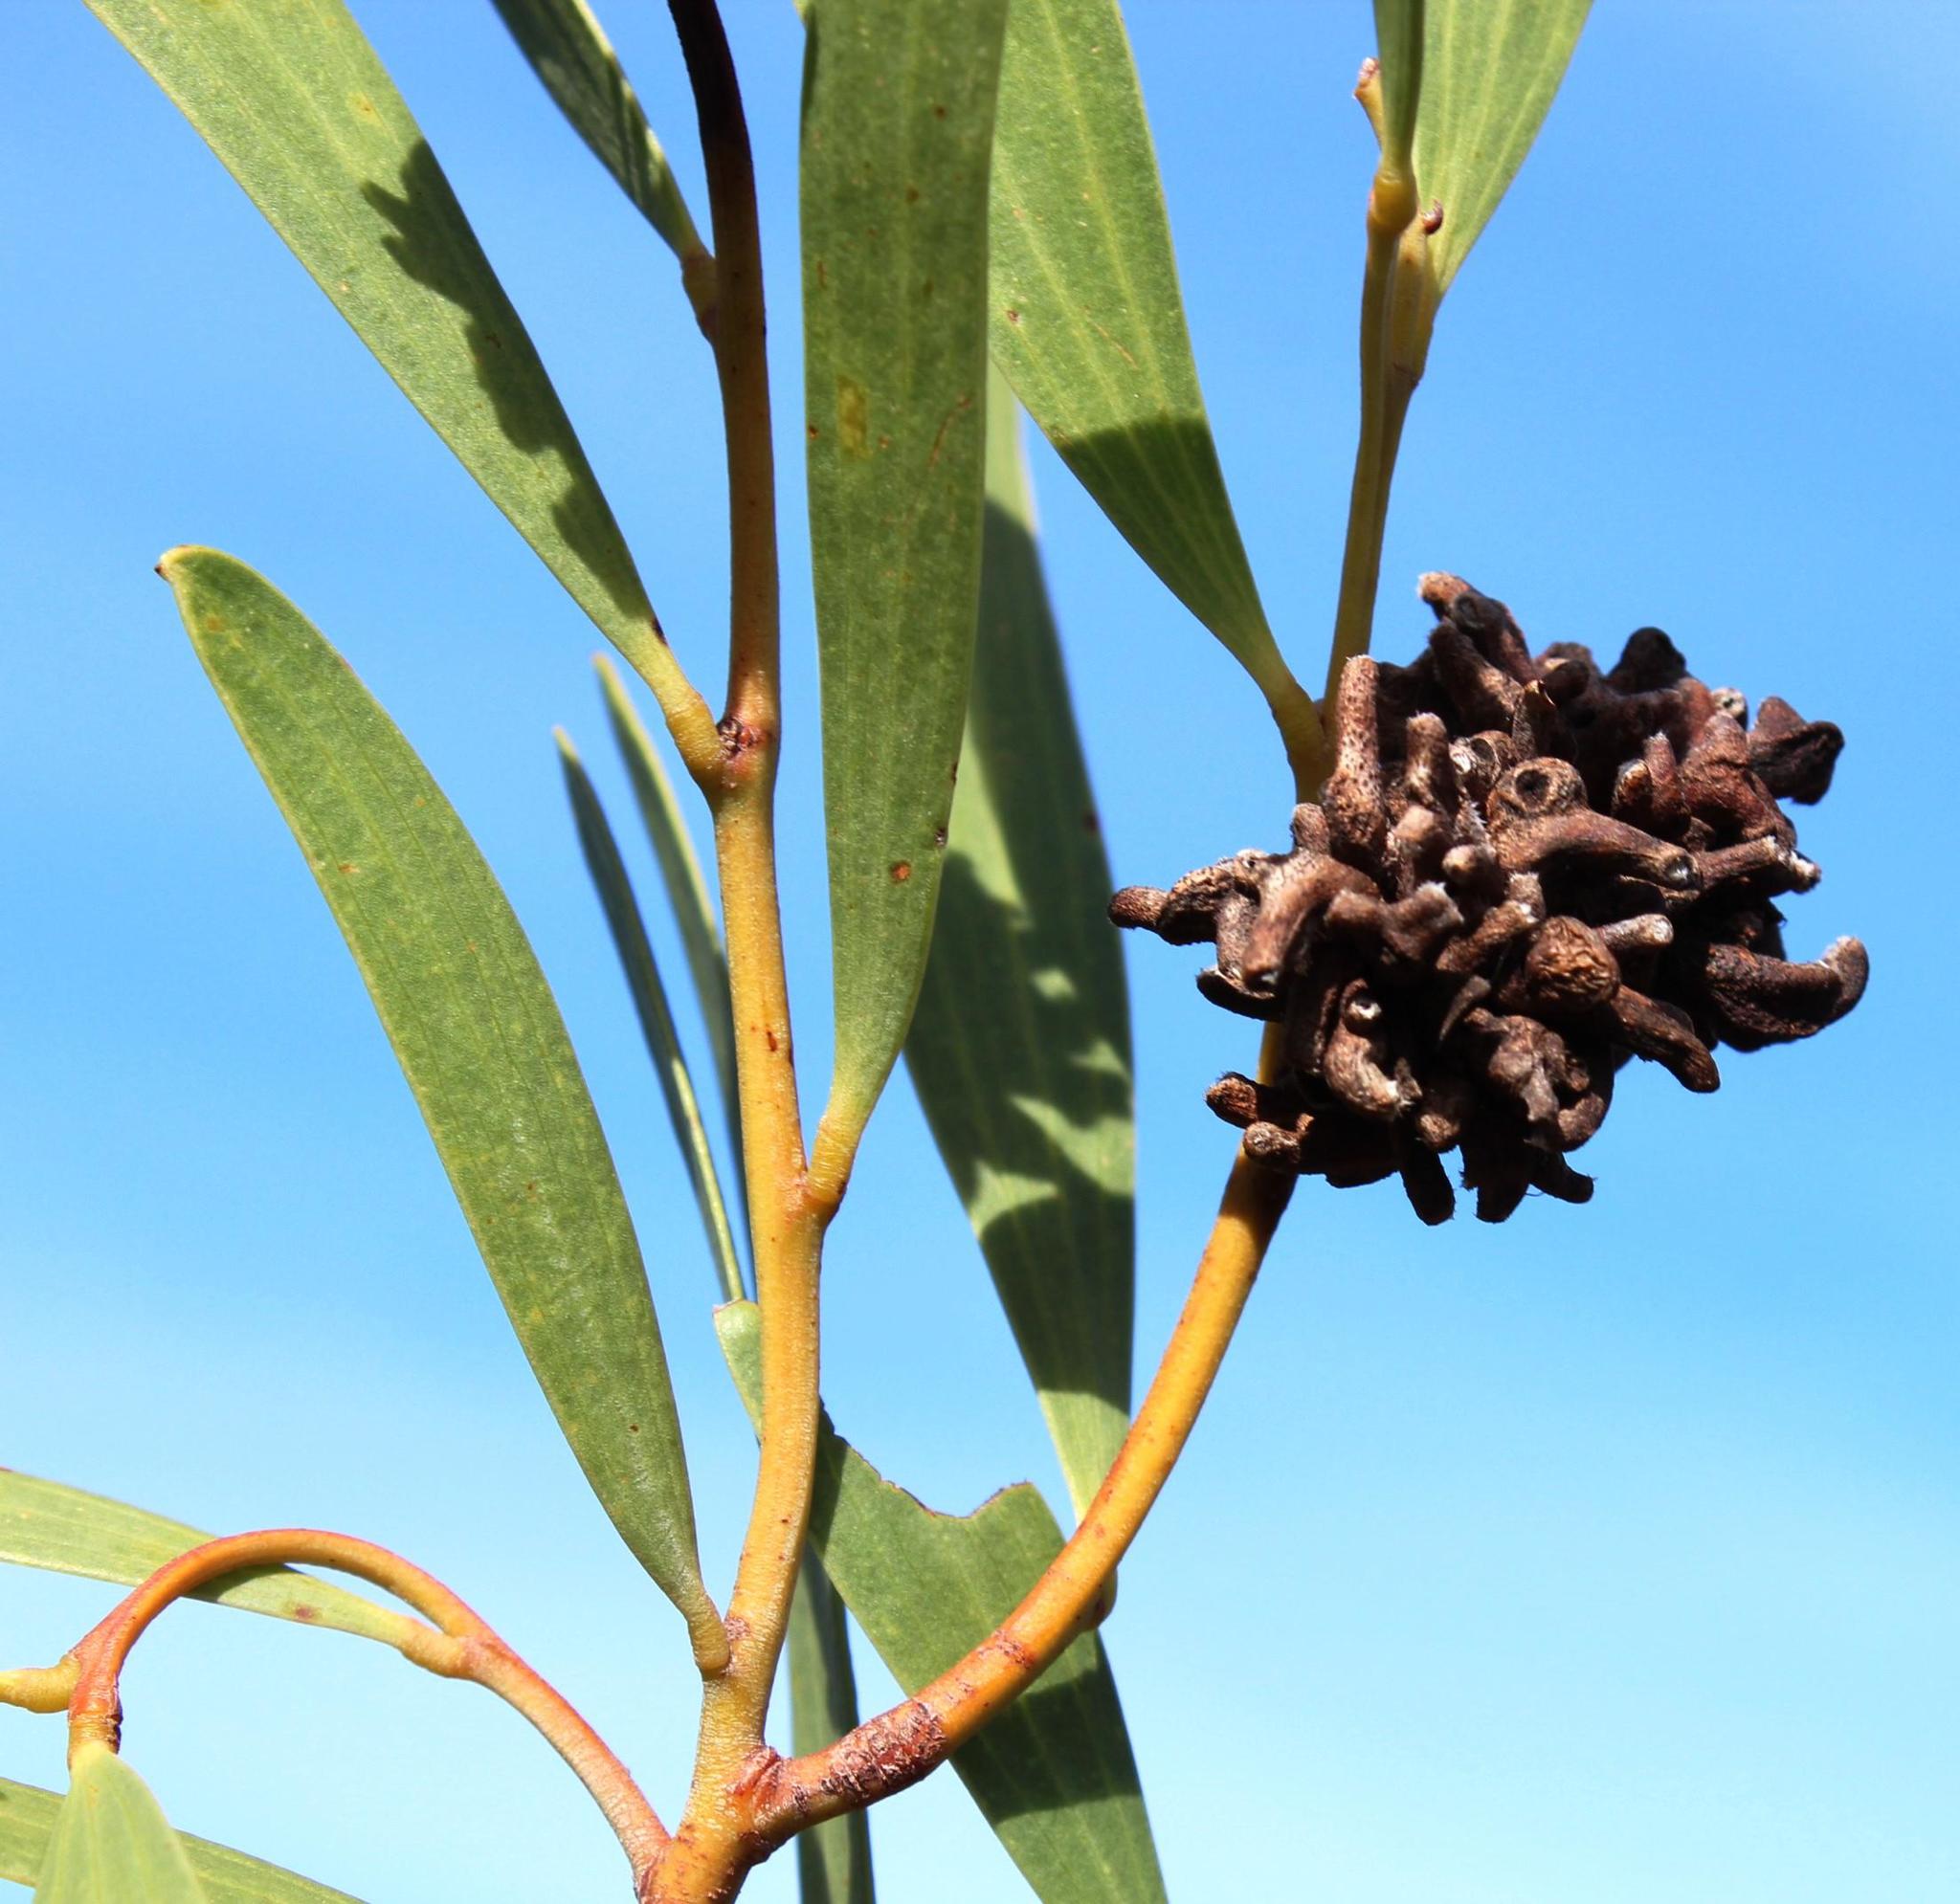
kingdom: Animalia
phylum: Arthropoda
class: Insecta
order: Diptera
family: Cecidomyiidae
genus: Dasineura
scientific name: Dasineura dielsi
